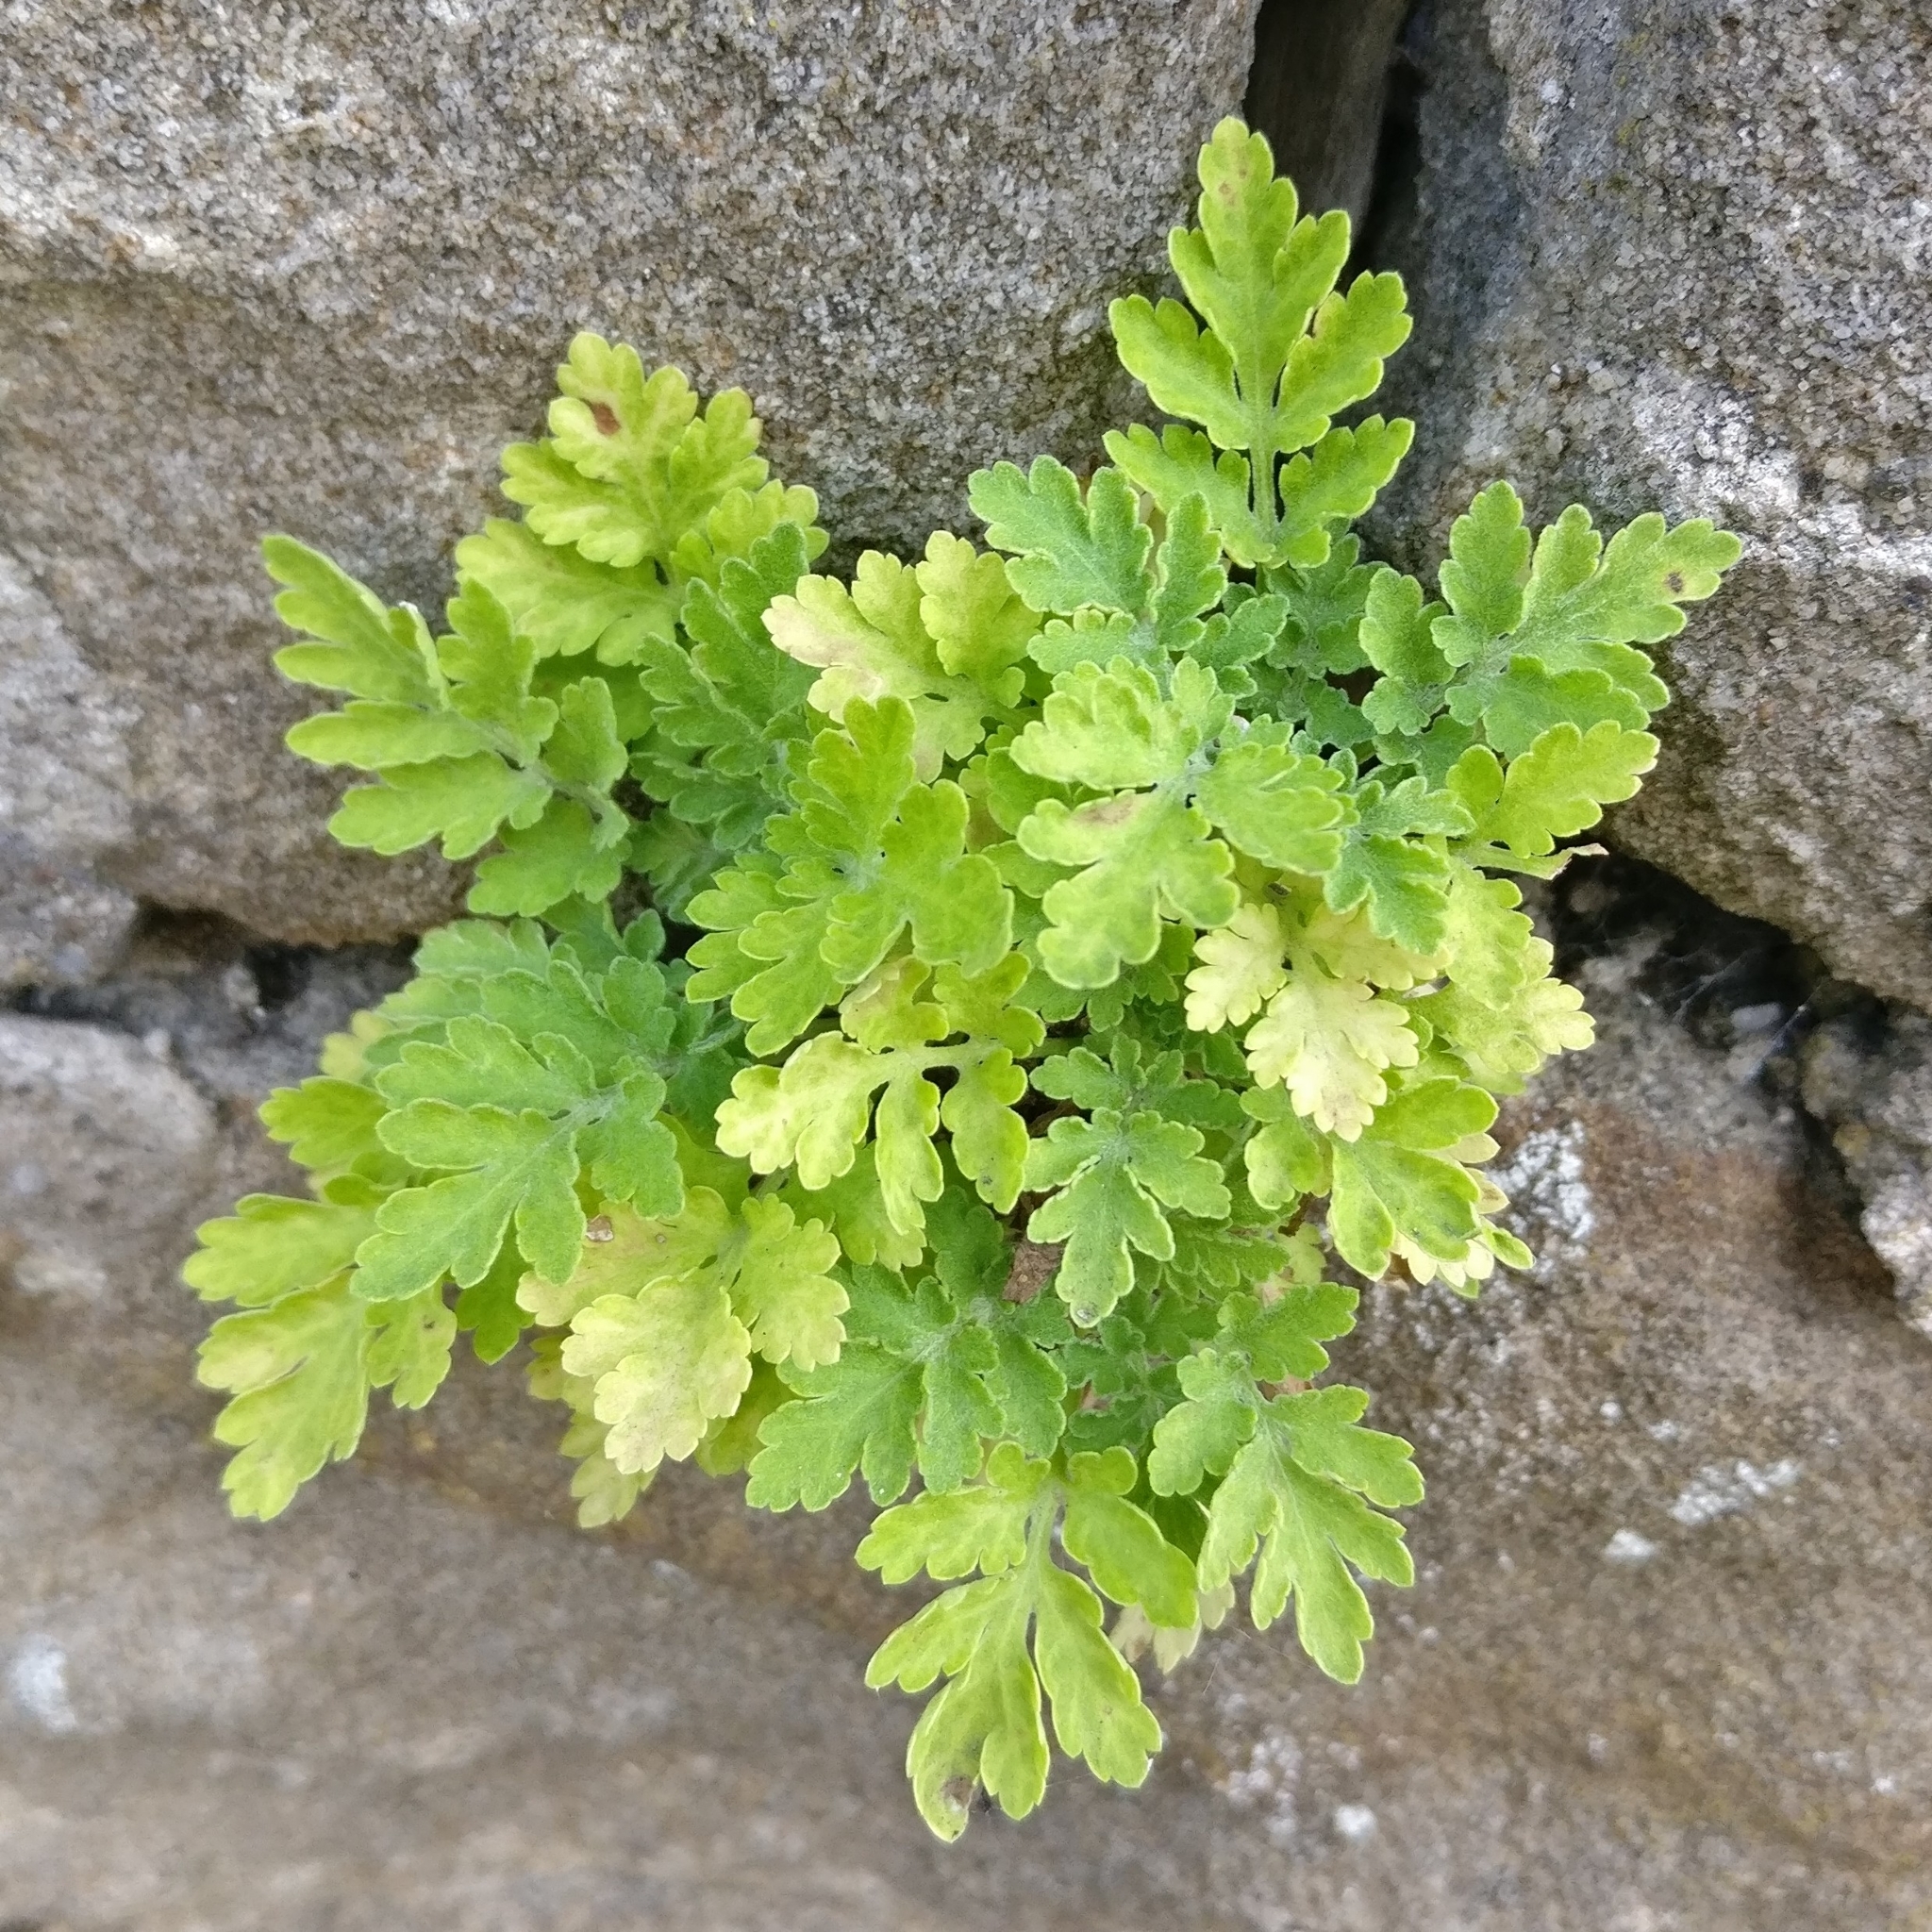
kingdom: Plantae
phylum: Tracheophyta
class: Magnoliopsida
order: Asterales
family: Asteraceae
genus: Tanacetum
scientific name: Tanacetum parthenium
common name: Feverfew
